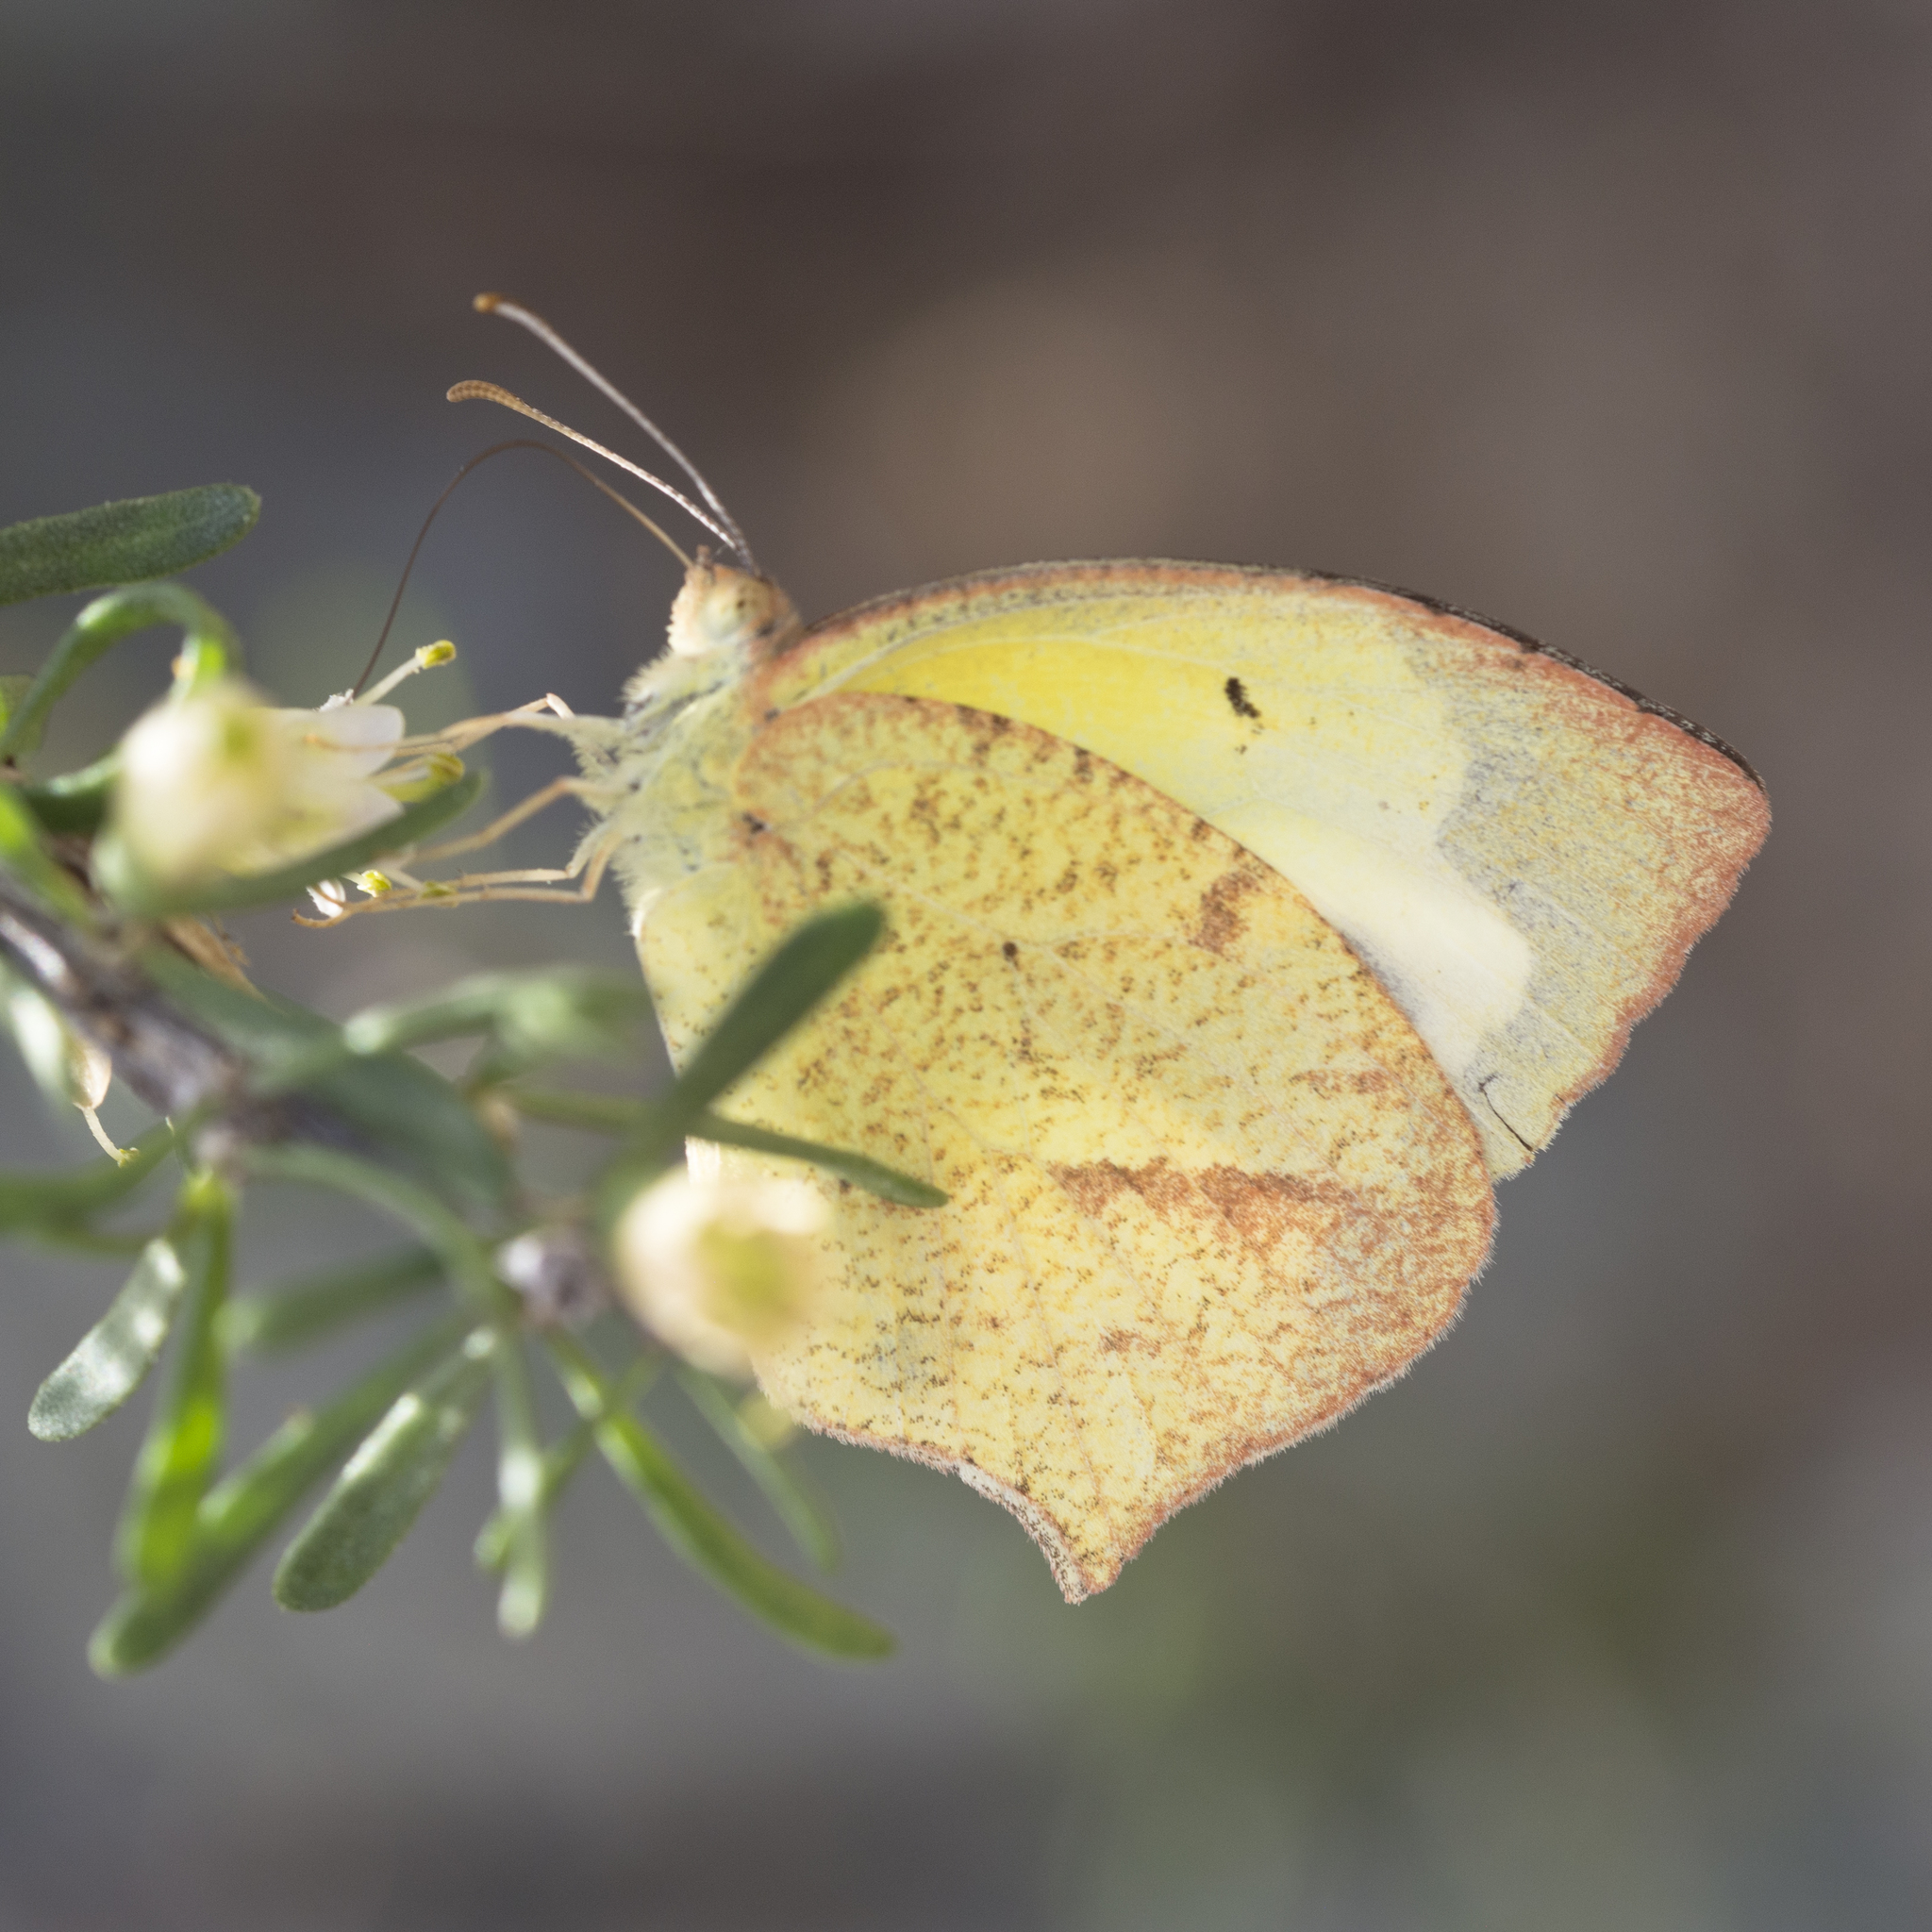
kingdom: Animalia
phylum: Arthropoda
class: Insecta
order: Lepidoptera
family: Pieridae
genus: Abaeis
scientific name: Abaeis mexicana
